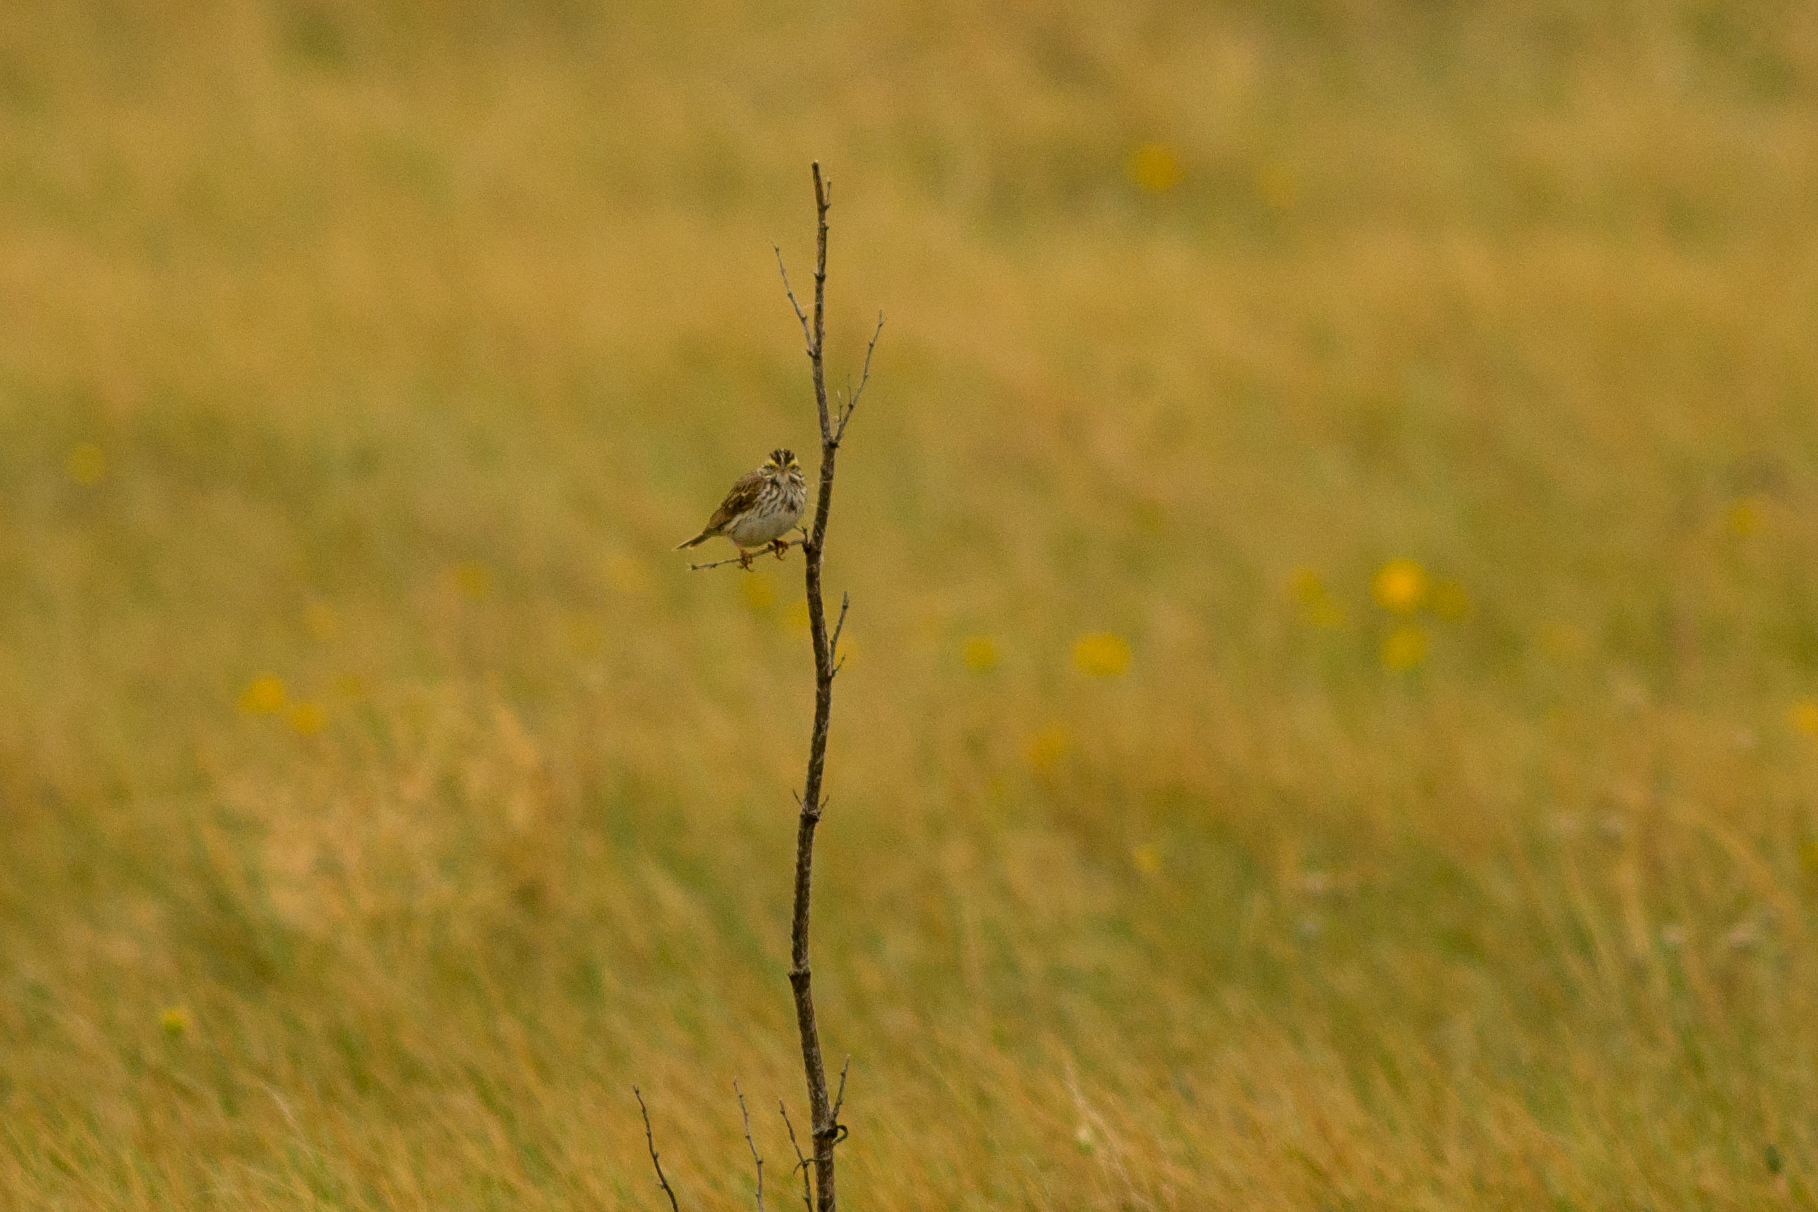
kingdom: Animalia
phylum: Chordata
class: Aves
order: Passeriformes
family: Passerellidae
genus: Passerculus
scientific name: Passerculus sandwichensis
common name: Savannah sparrow
